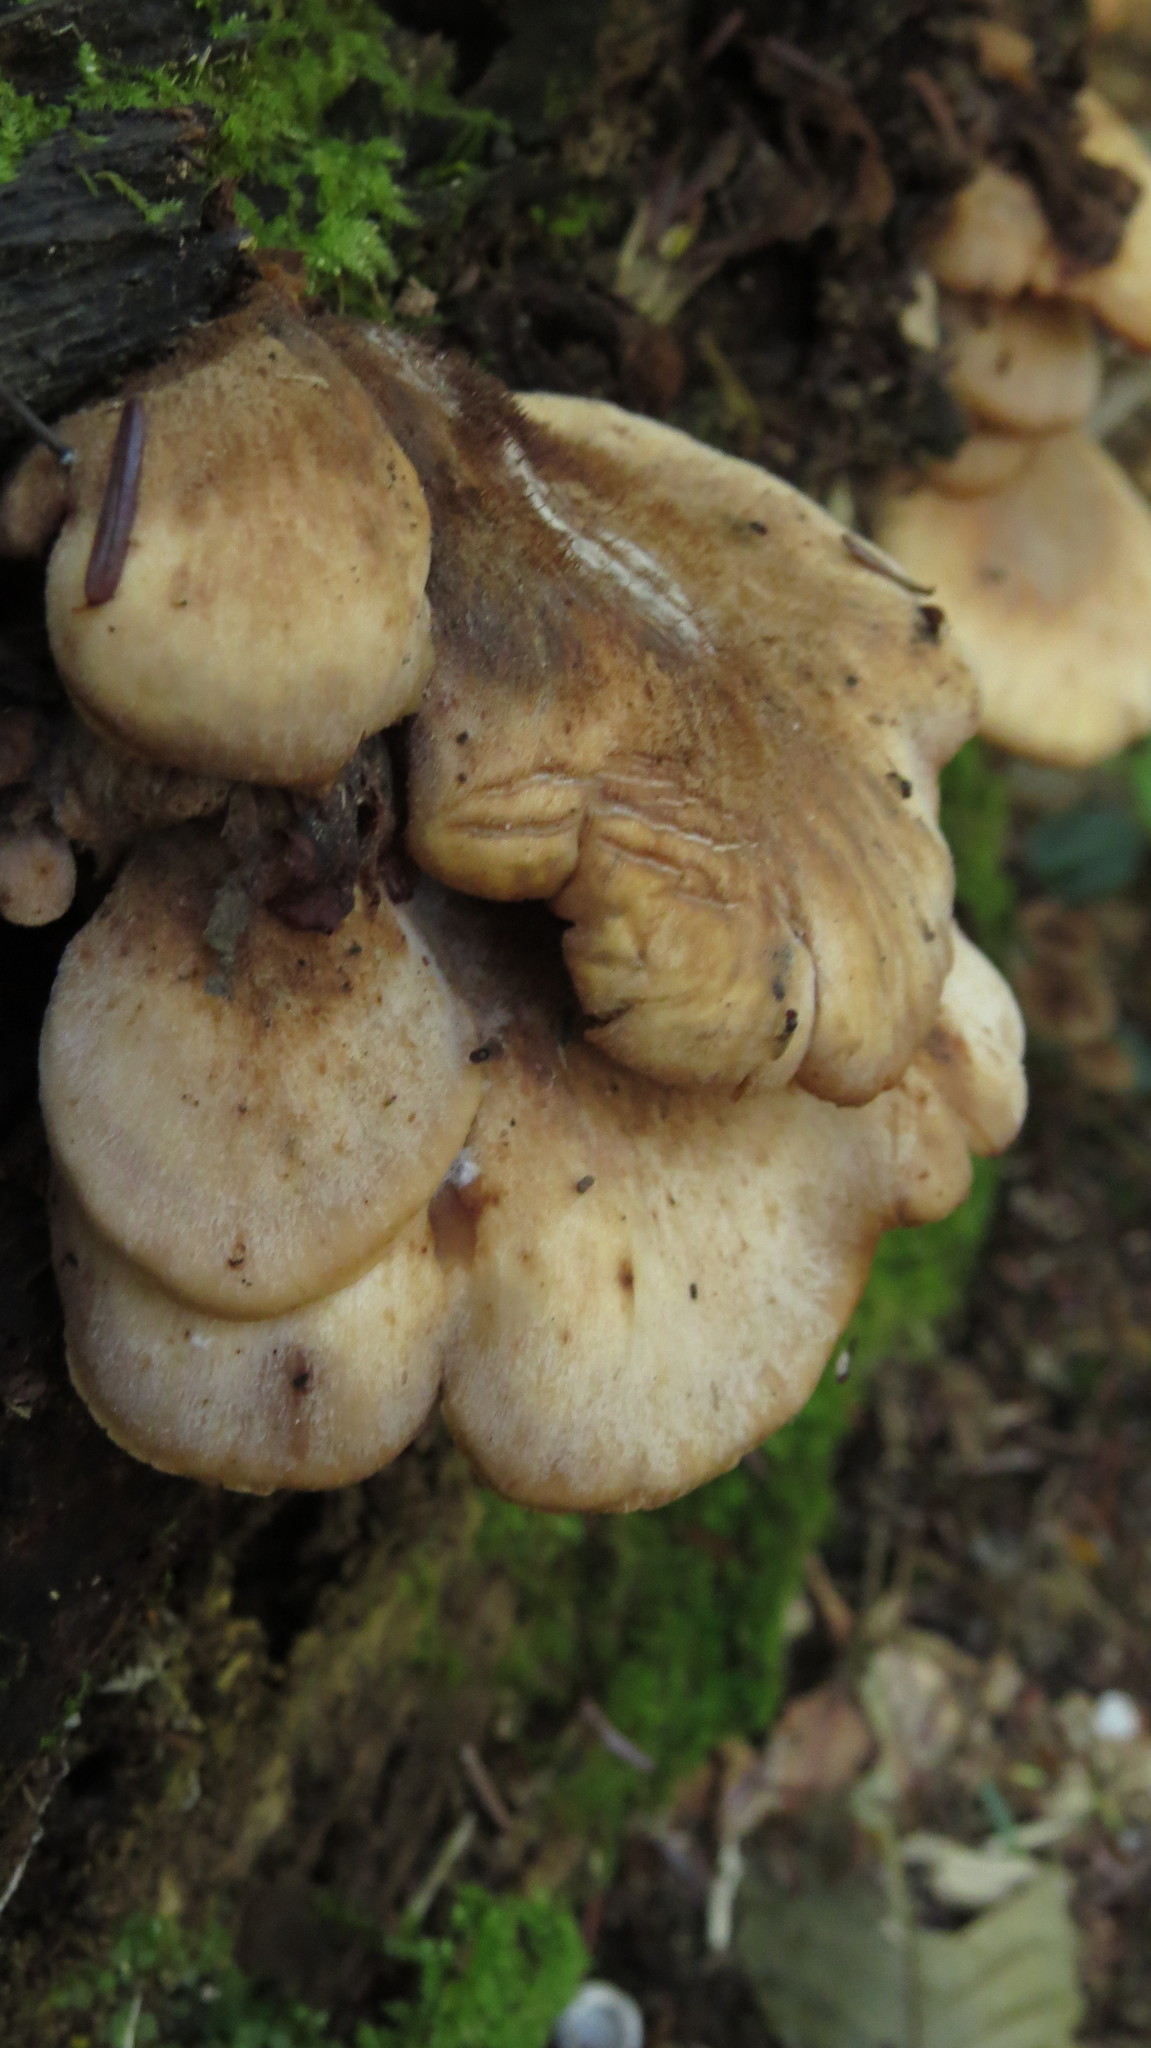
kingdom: Fungi
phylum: Basidiomycota
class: Agaricomycetes
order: Russulales
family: Auriscalpiaceae
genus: Lentinellus
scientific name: Lentinellus ursinus
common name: Bear lentinus
